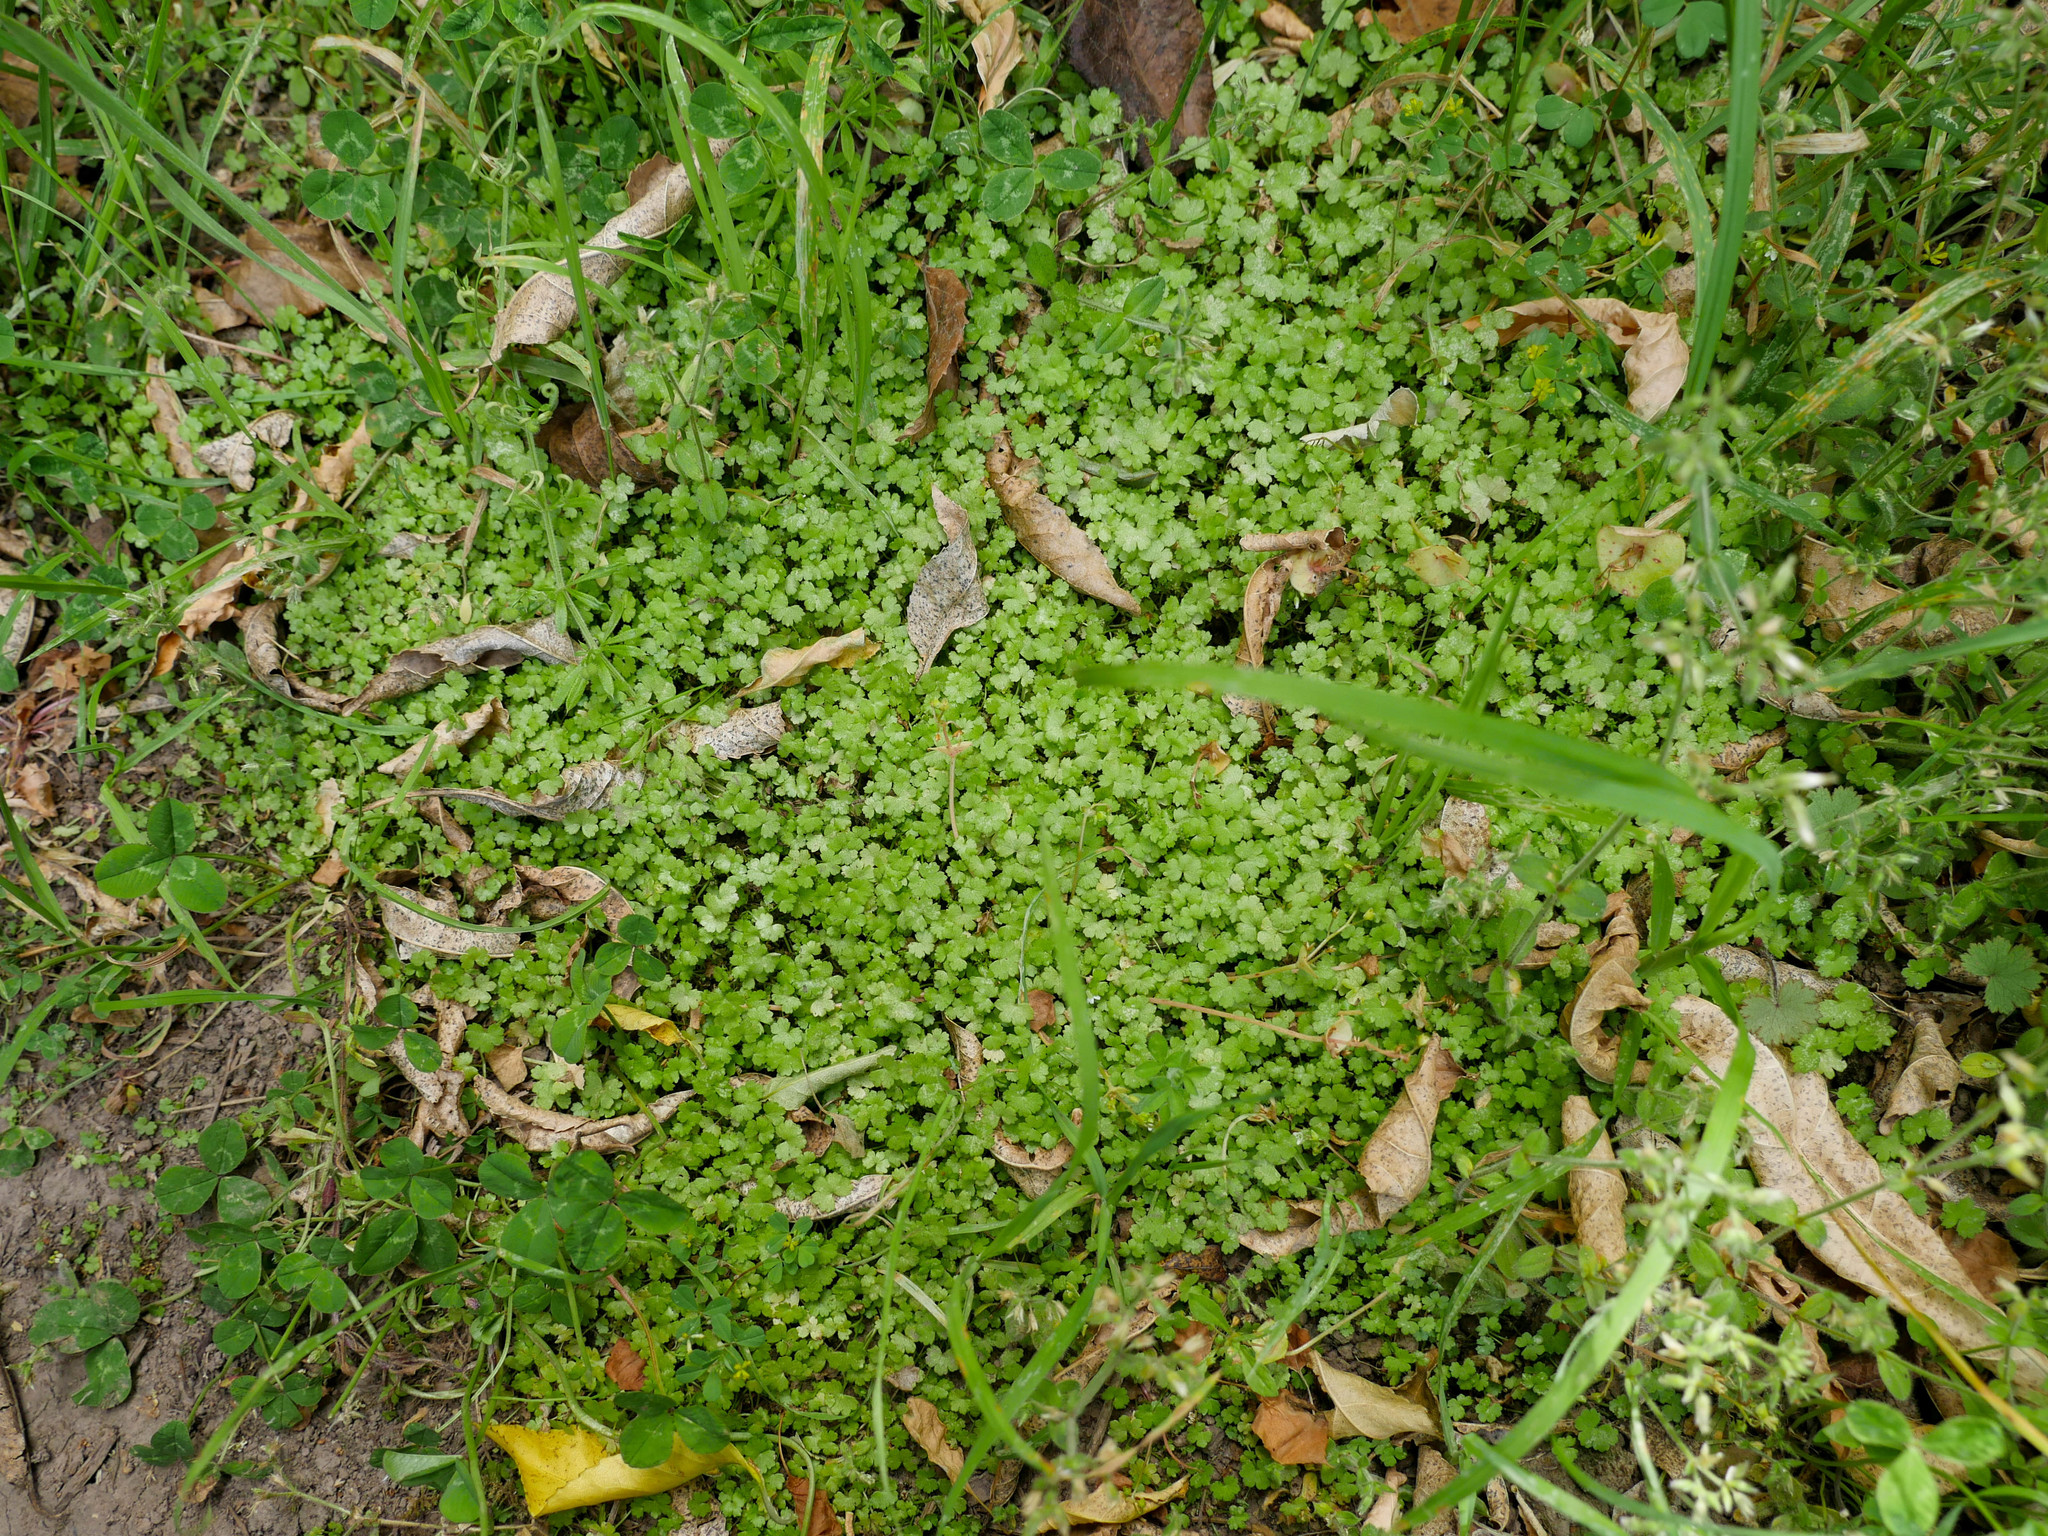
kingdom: Plantae
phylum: Tracheophyta
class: Magnoliopsida
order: Apiales
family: Araliaceae
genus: Hydrocotyle
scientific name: Hydrocotyle heteromeria
